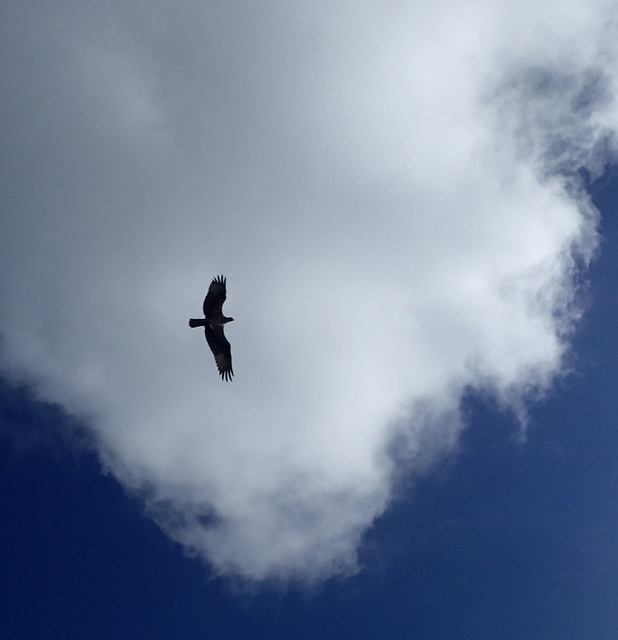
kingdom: Animalia
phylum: Chordata
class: Aves
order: Accipitriformes
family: Pandionidae
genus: Pandion
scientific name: Pandion haliaetus
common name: Osprey
